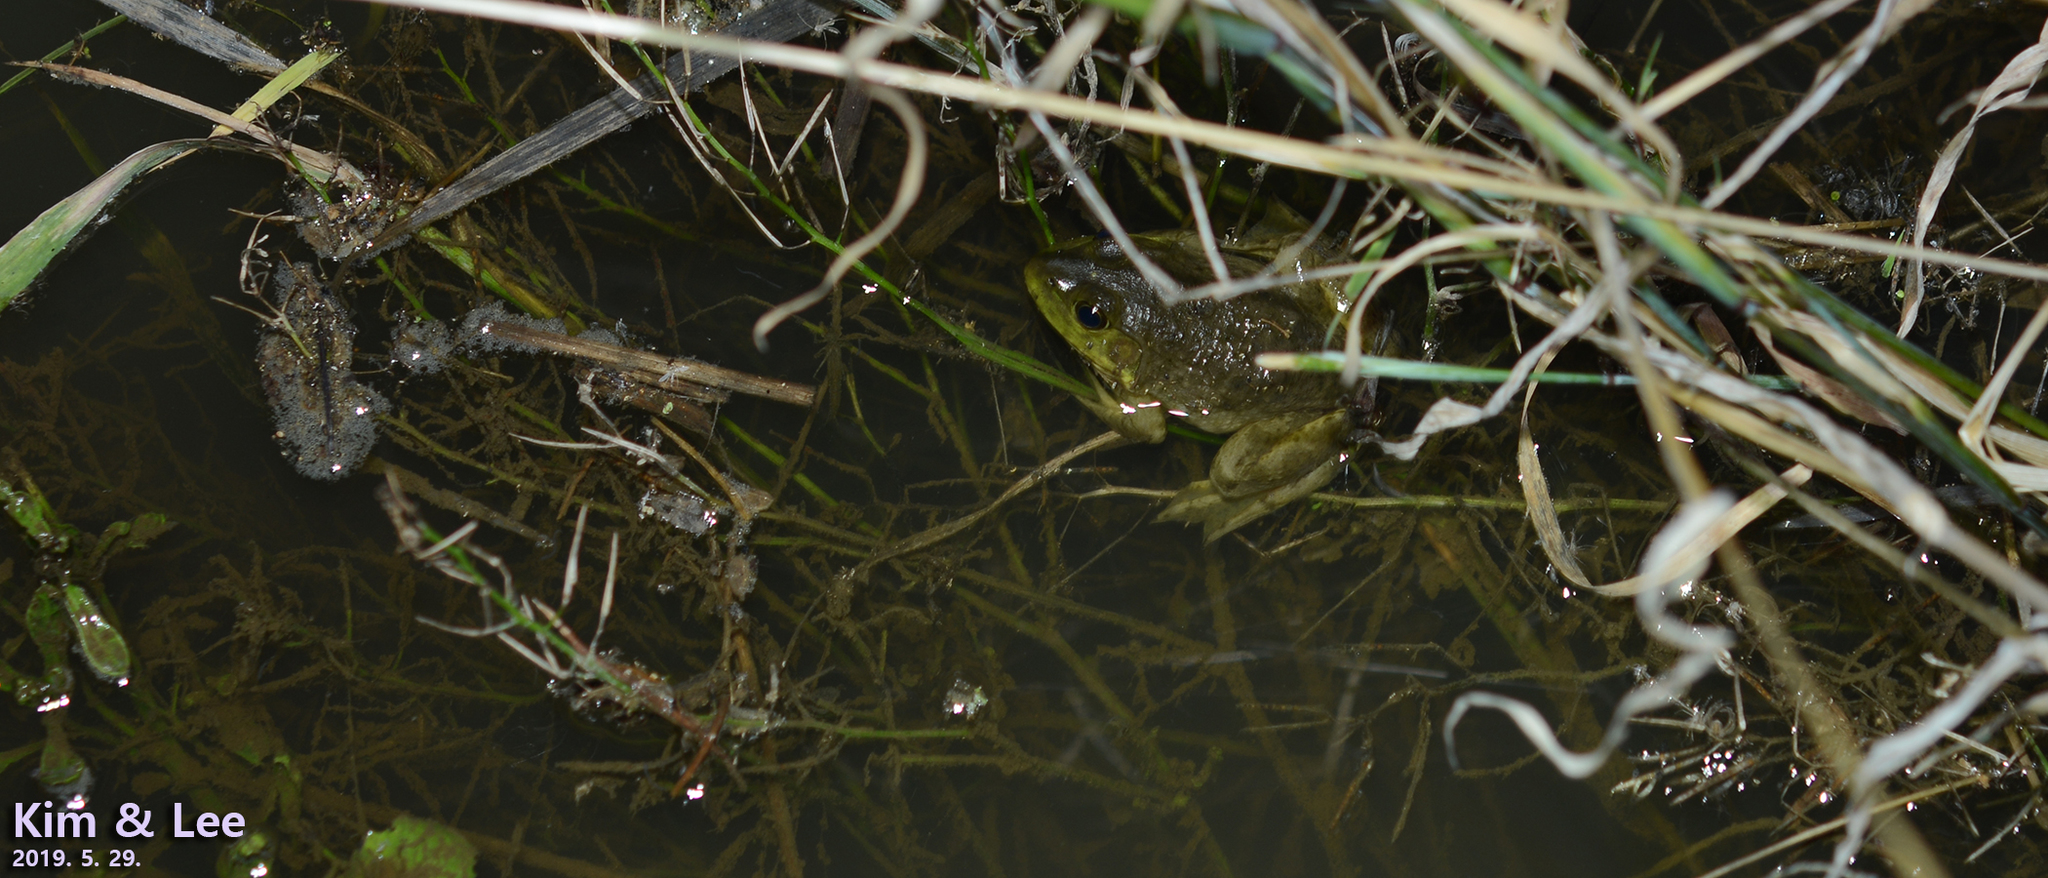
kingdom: Animalia
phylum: Chordata
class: Amphibia
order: Anura
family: Ranidae
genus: Lithobates
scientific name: Lithobates catesbeianus
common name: American bullfrog
